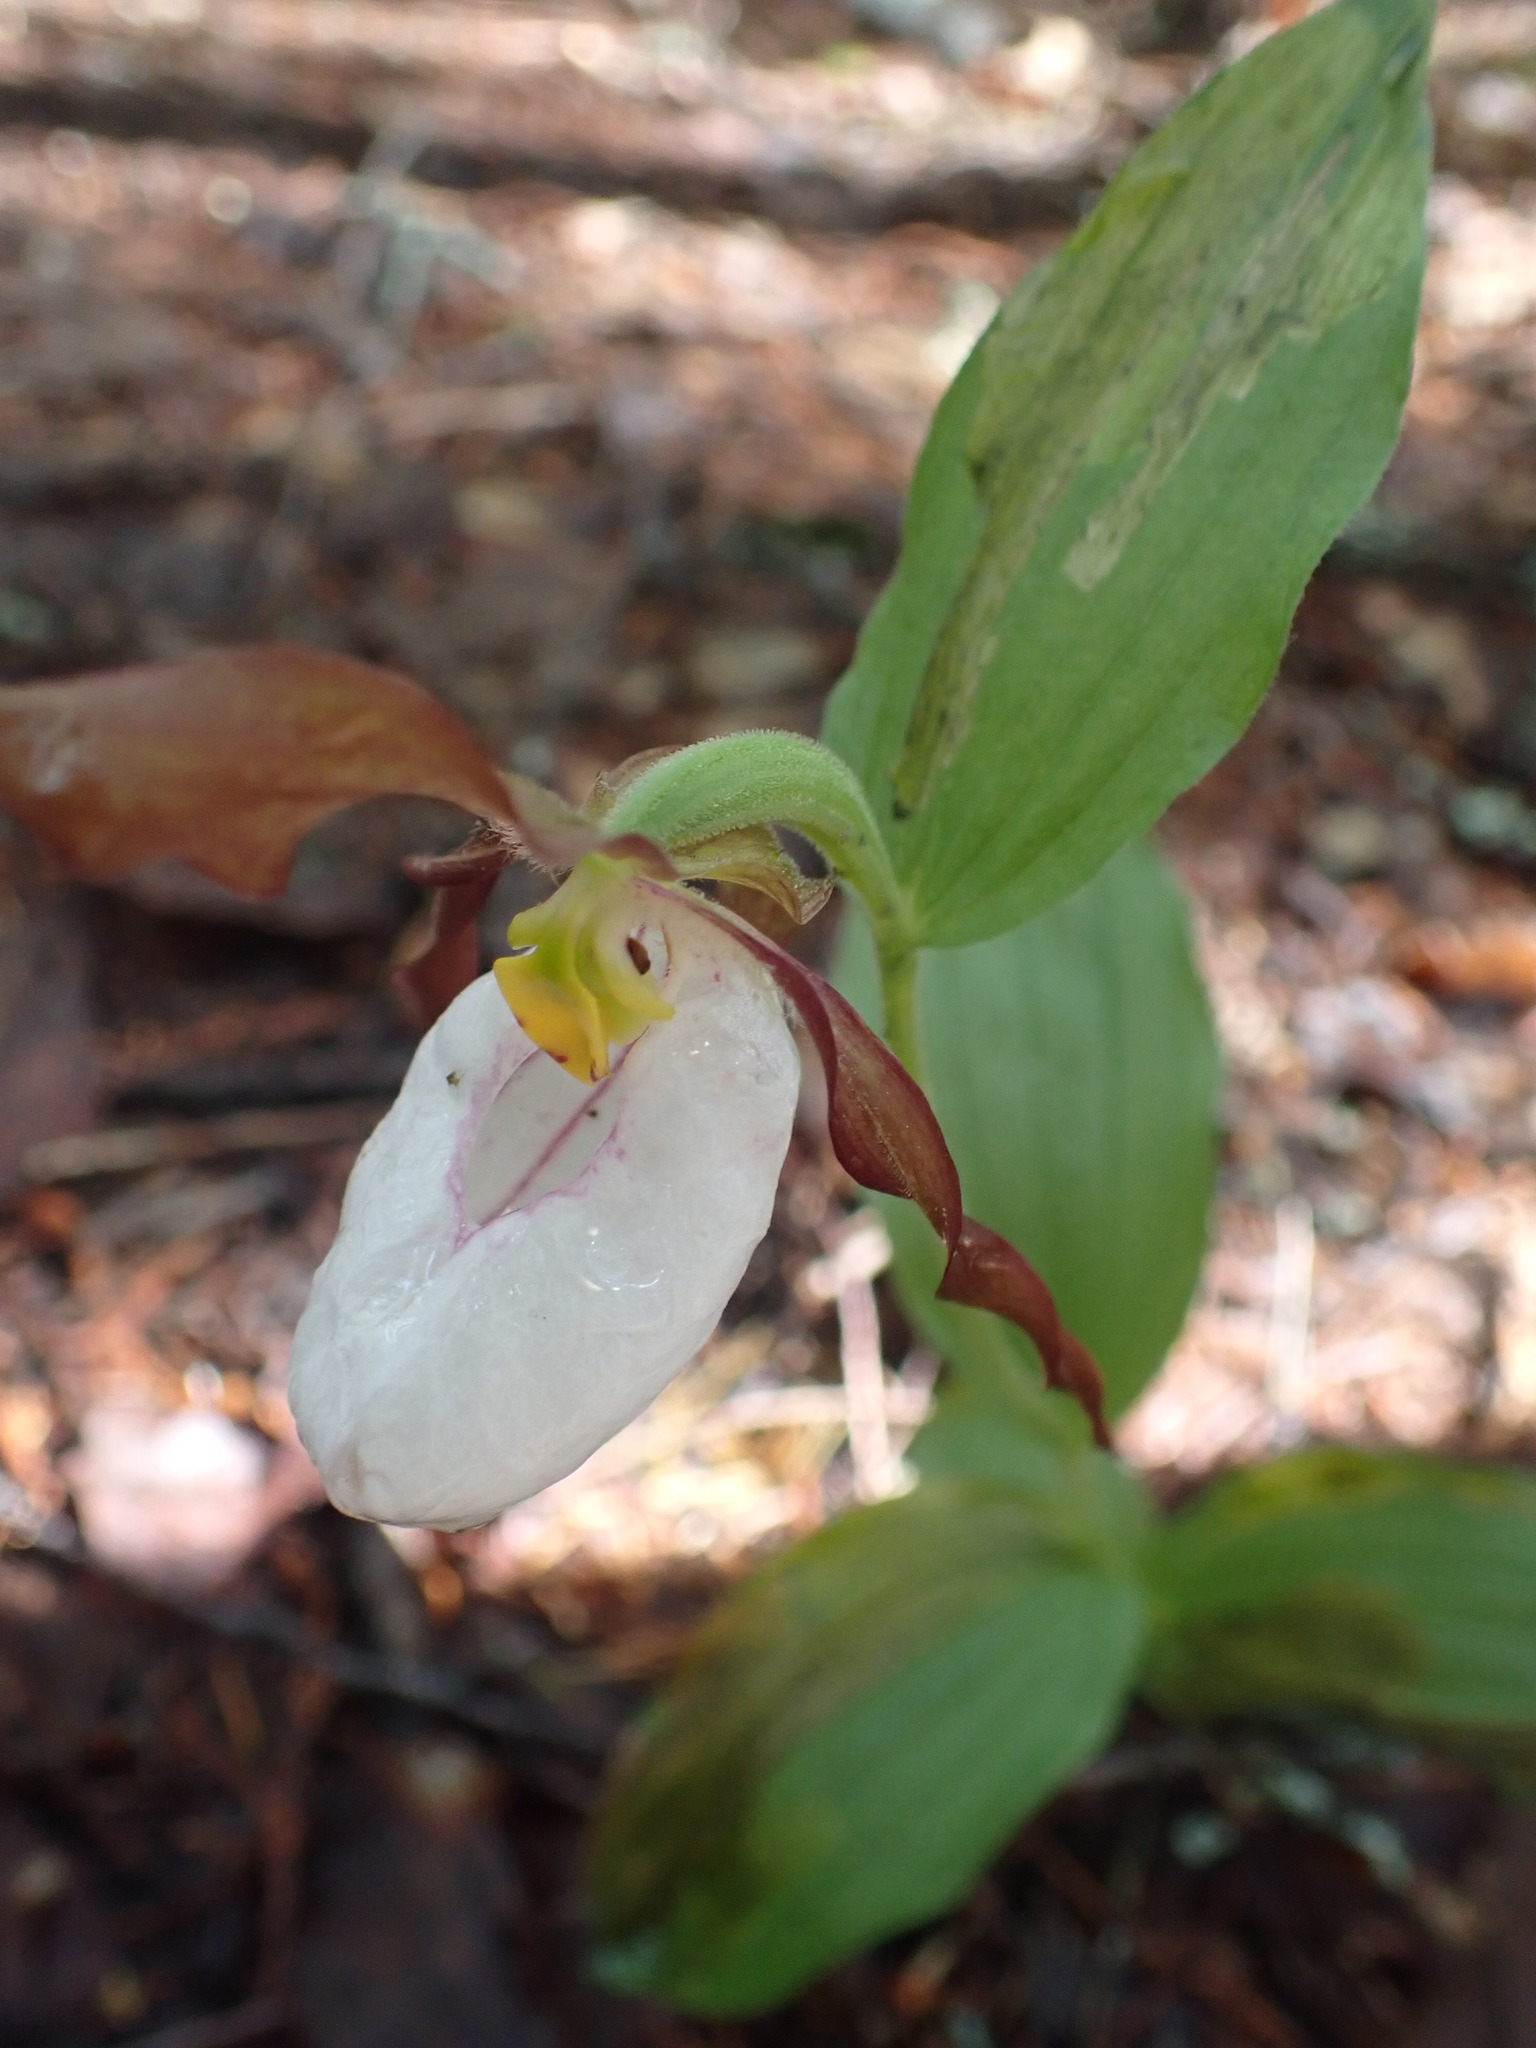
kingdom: Plantae
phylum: Tracheophyta
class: Liliopsida
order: Asparagales
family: Orchidaceae
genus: Cypripedium
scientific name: Cypripedium montanum
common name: Mountain lady's-slipper
